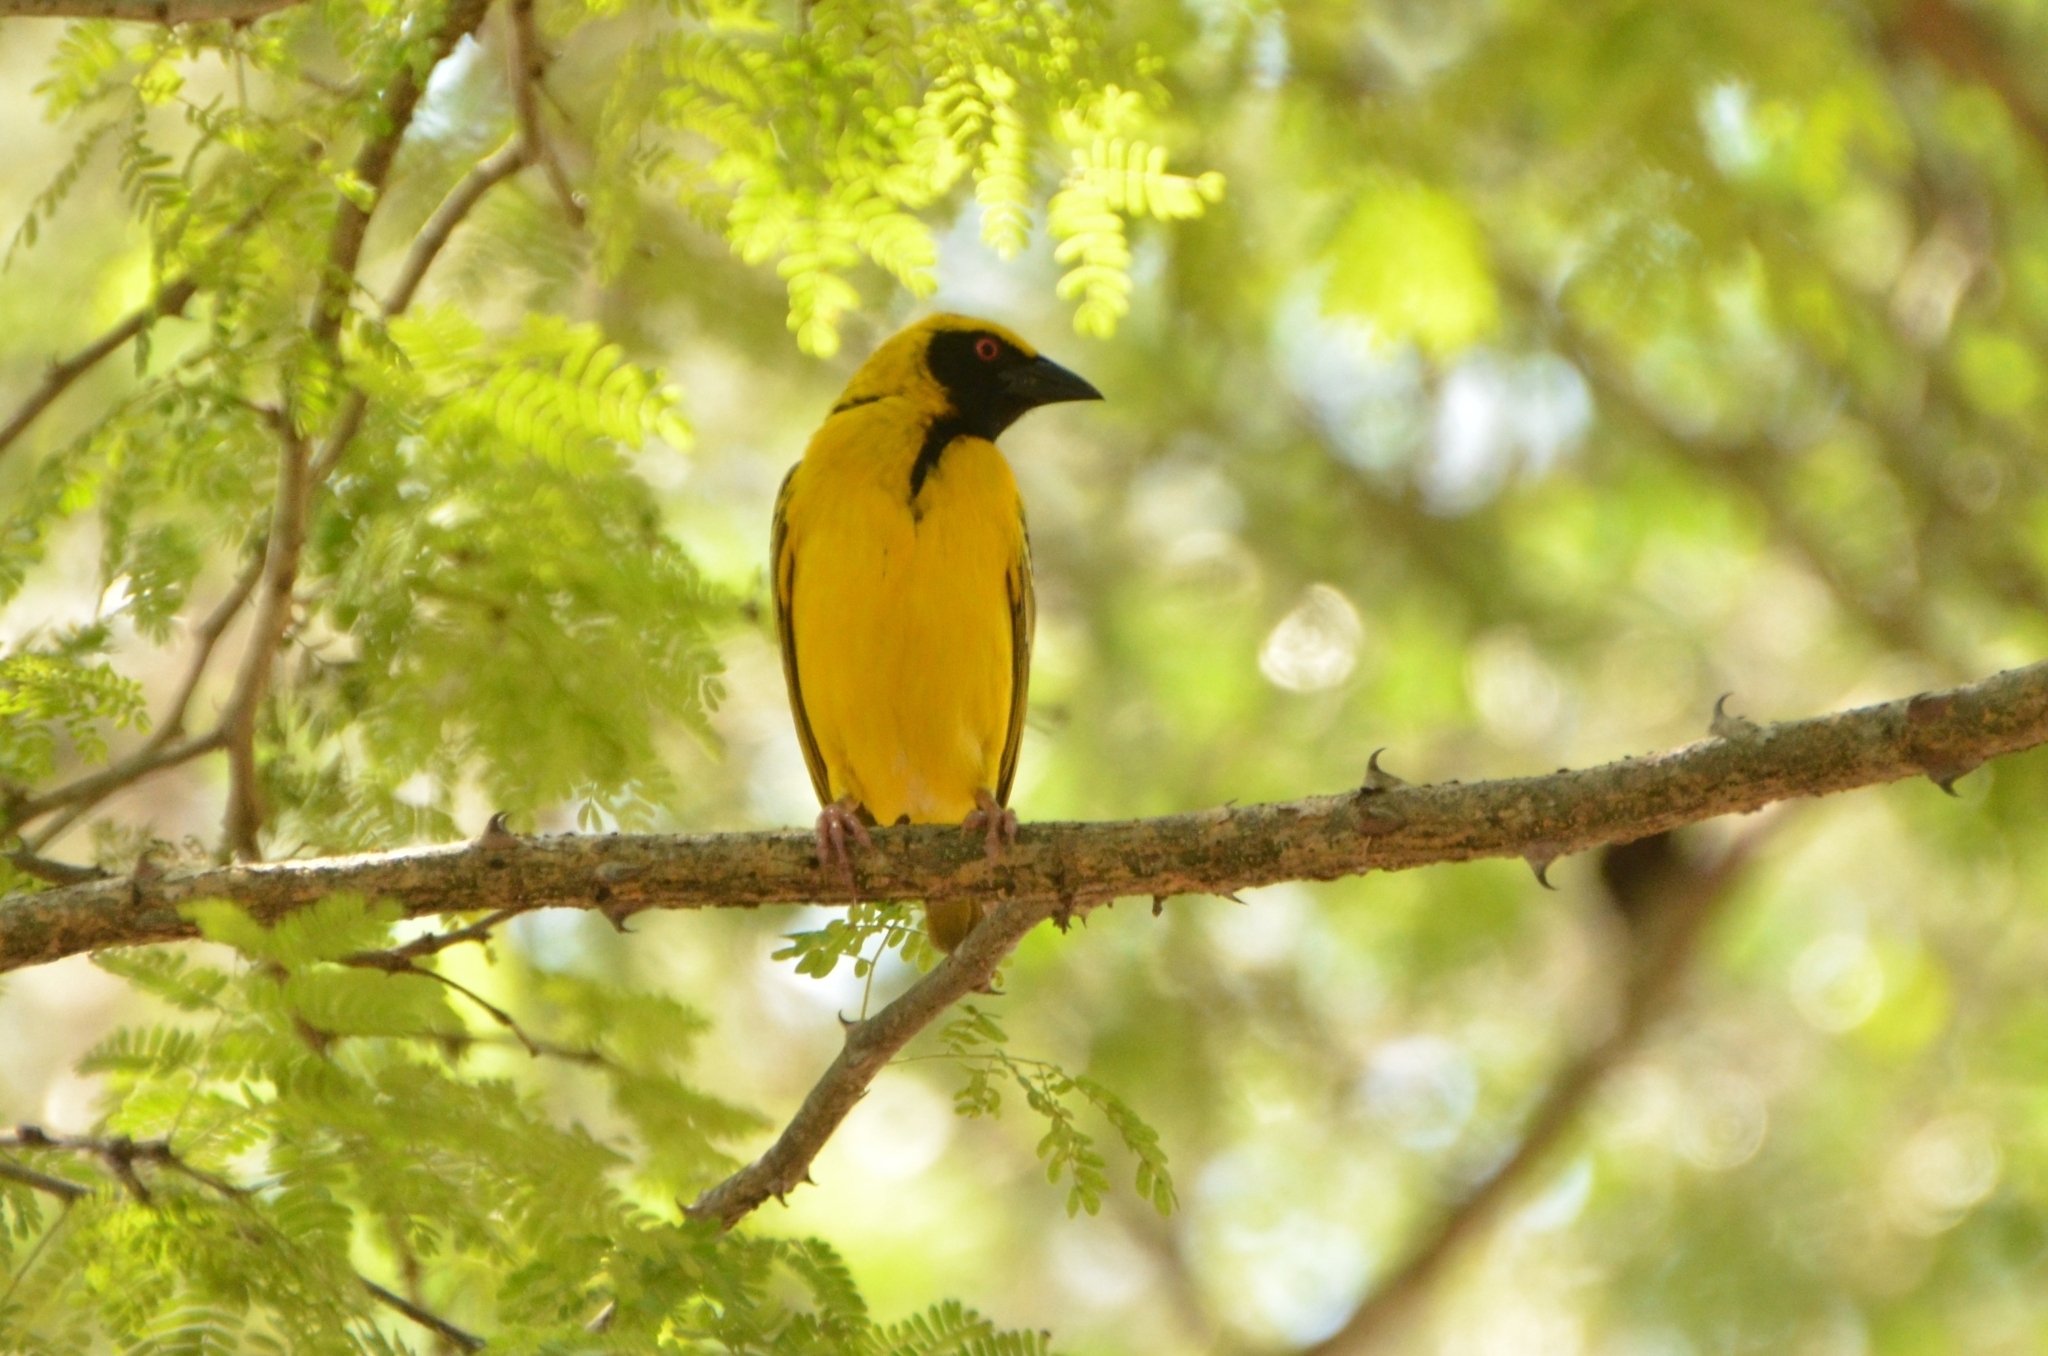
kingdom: Animalia
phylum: Chordata
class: Aves
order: Passeriformes
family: Ploceidae
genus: Ploceus
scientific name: Ploceus cucullatus
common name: Village weaver
